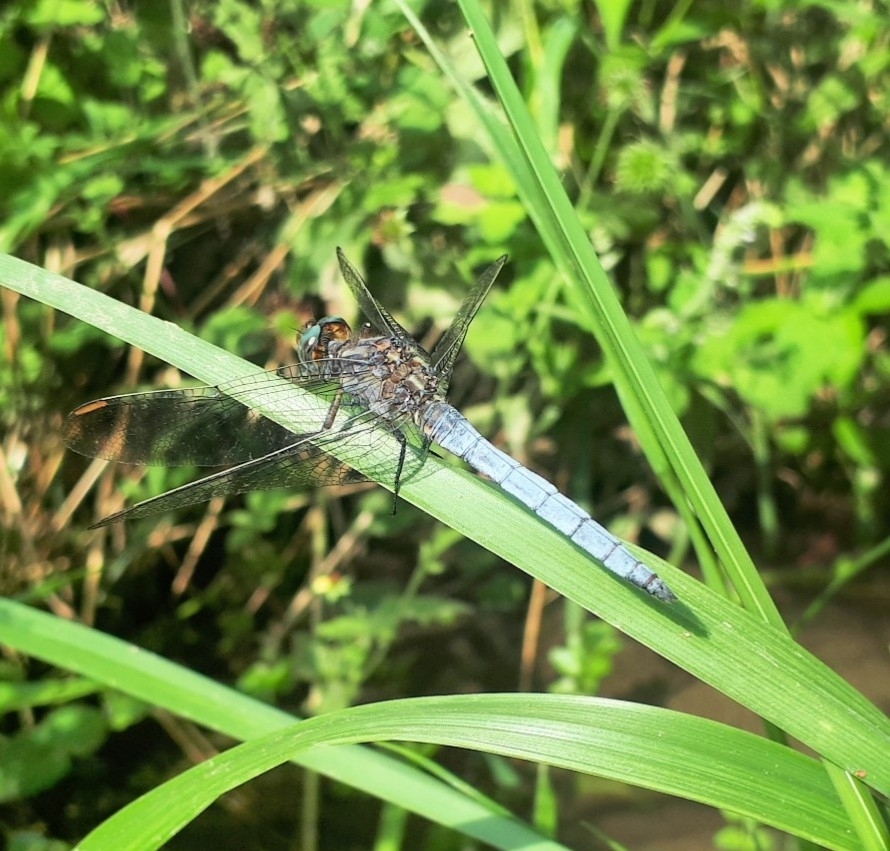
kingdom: Animalia
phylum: Arthropoda
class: Insecta
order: Odonata
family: Libellulidae
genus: Orthetrum
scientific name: Orthetrum coerulescens
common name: Keeled skimmer
